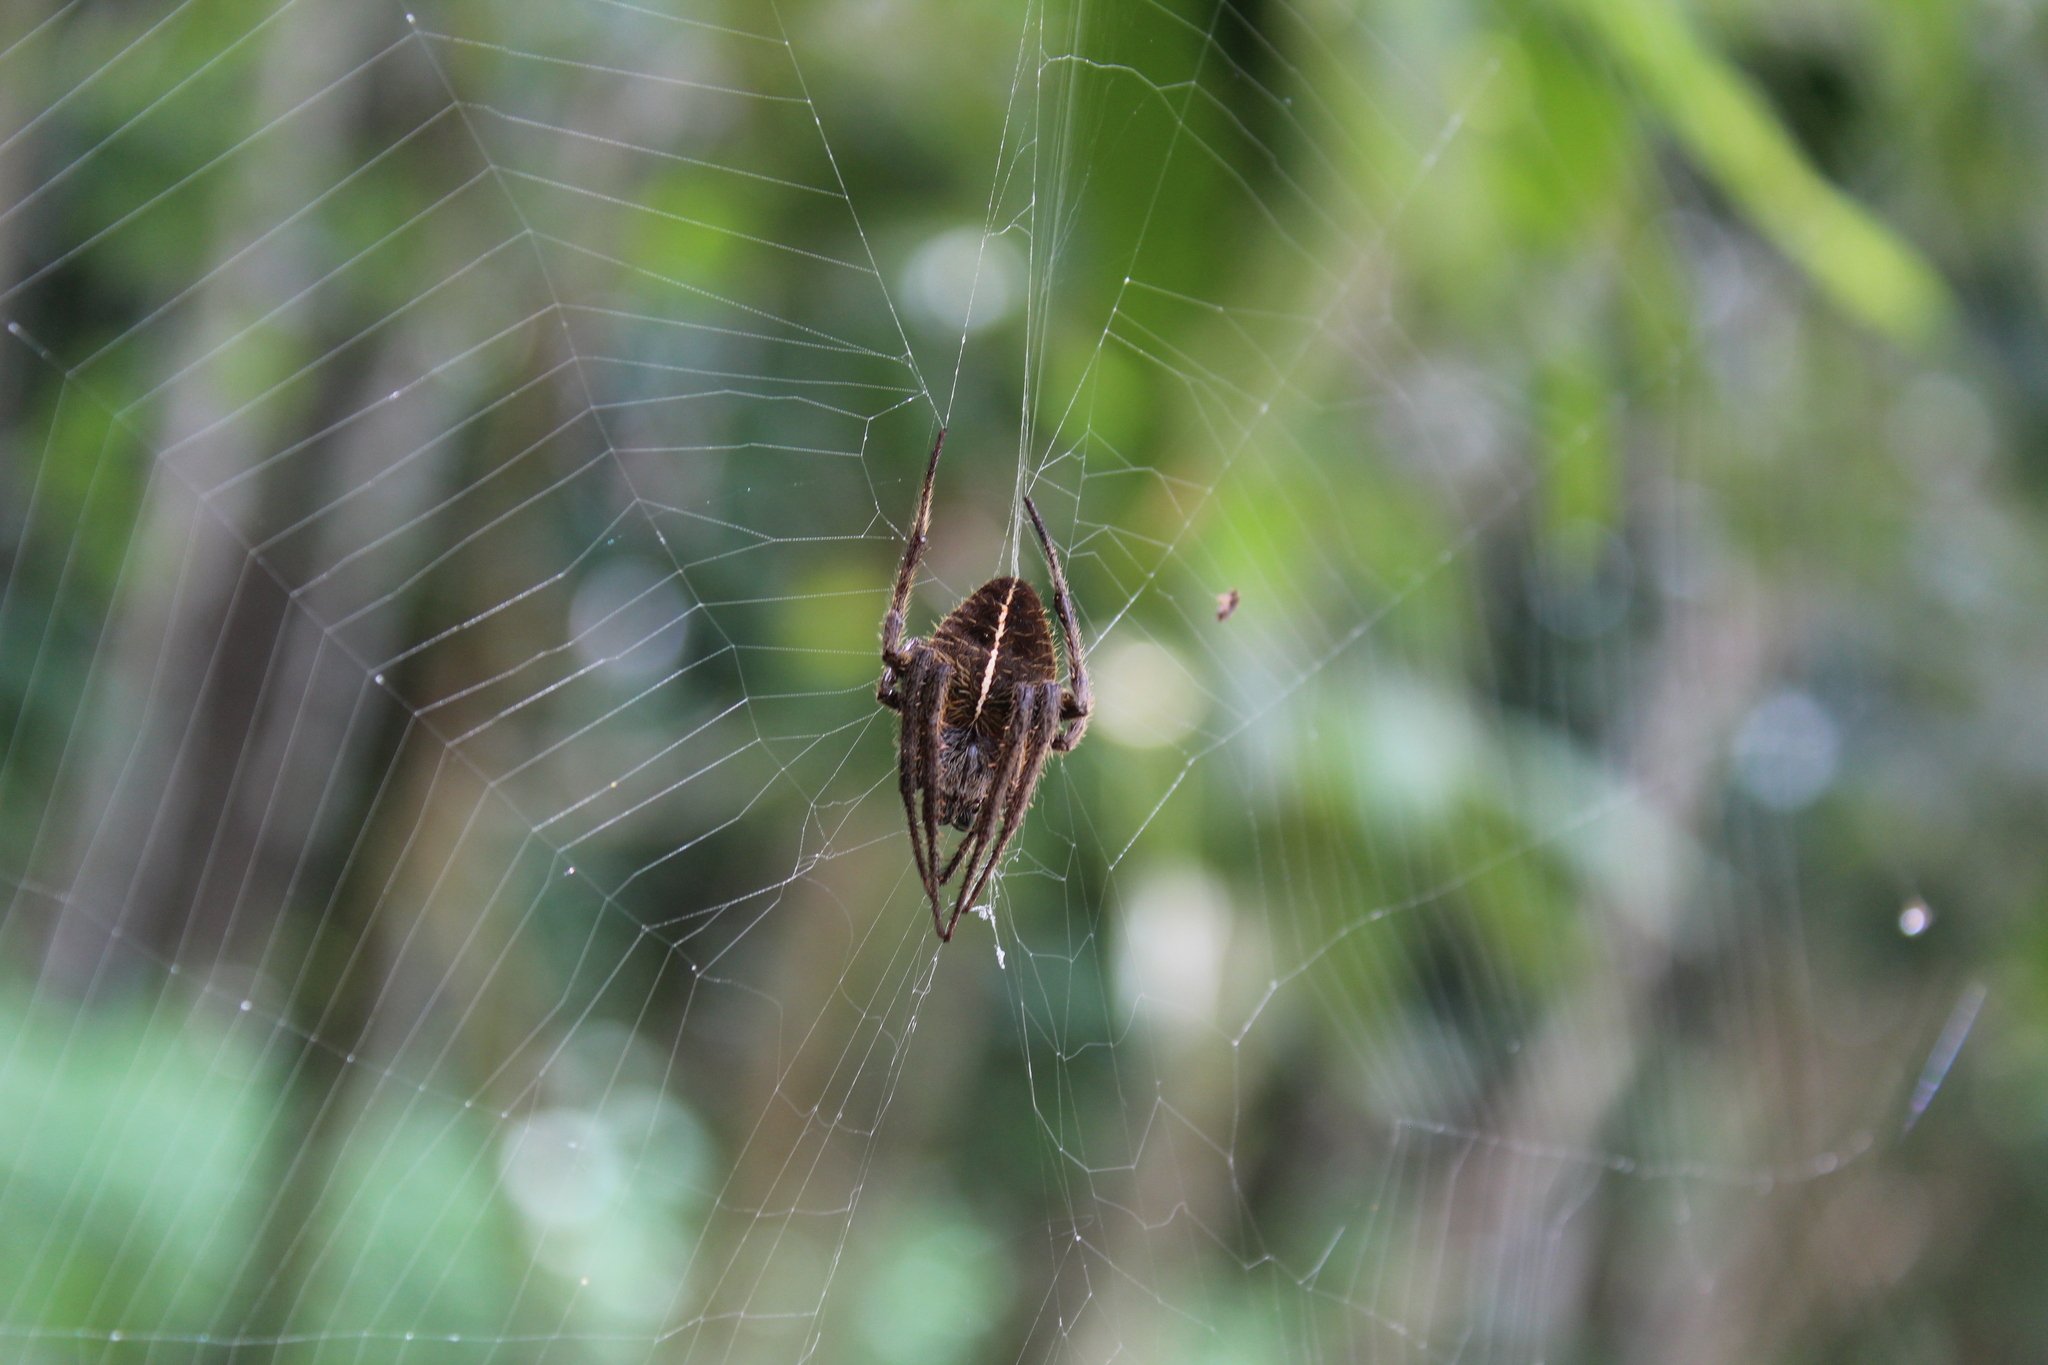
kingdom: Animalia
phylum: Arthropoda
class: Arachnida
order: Araneae
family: Araneidae
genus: Eriophora
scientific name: Eriophora fuliginea
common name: Orb weavers
